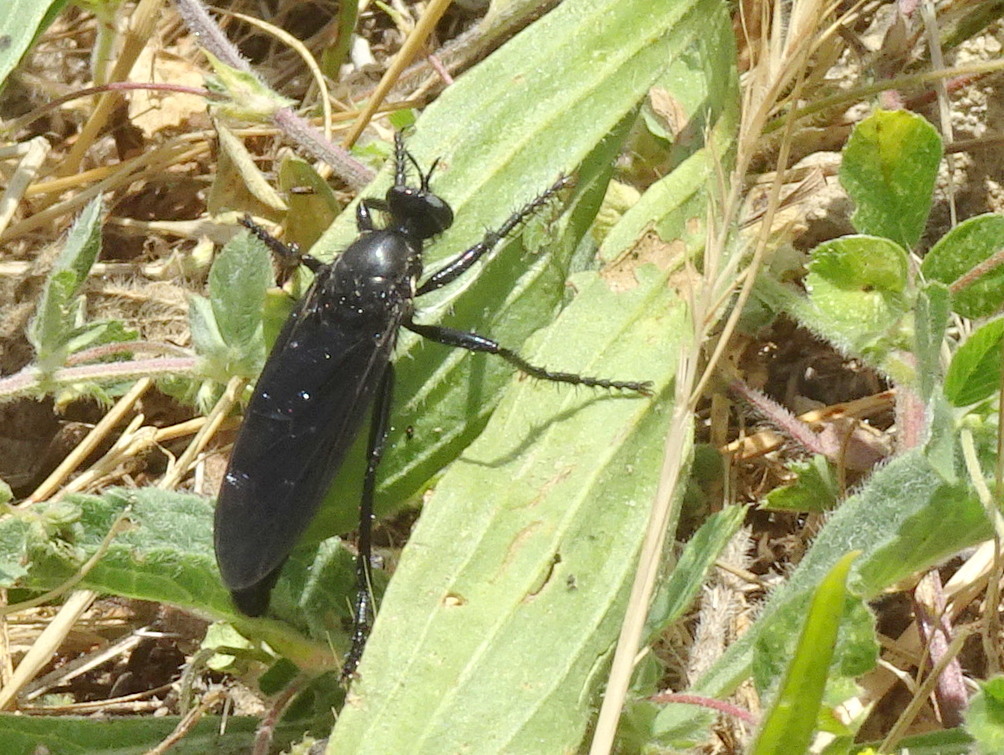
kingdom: Animalia
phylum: Arthropoda
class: Insecta
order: Diptera
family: Asilidae
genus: Dasypogon
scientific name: Dasypogon diadema
